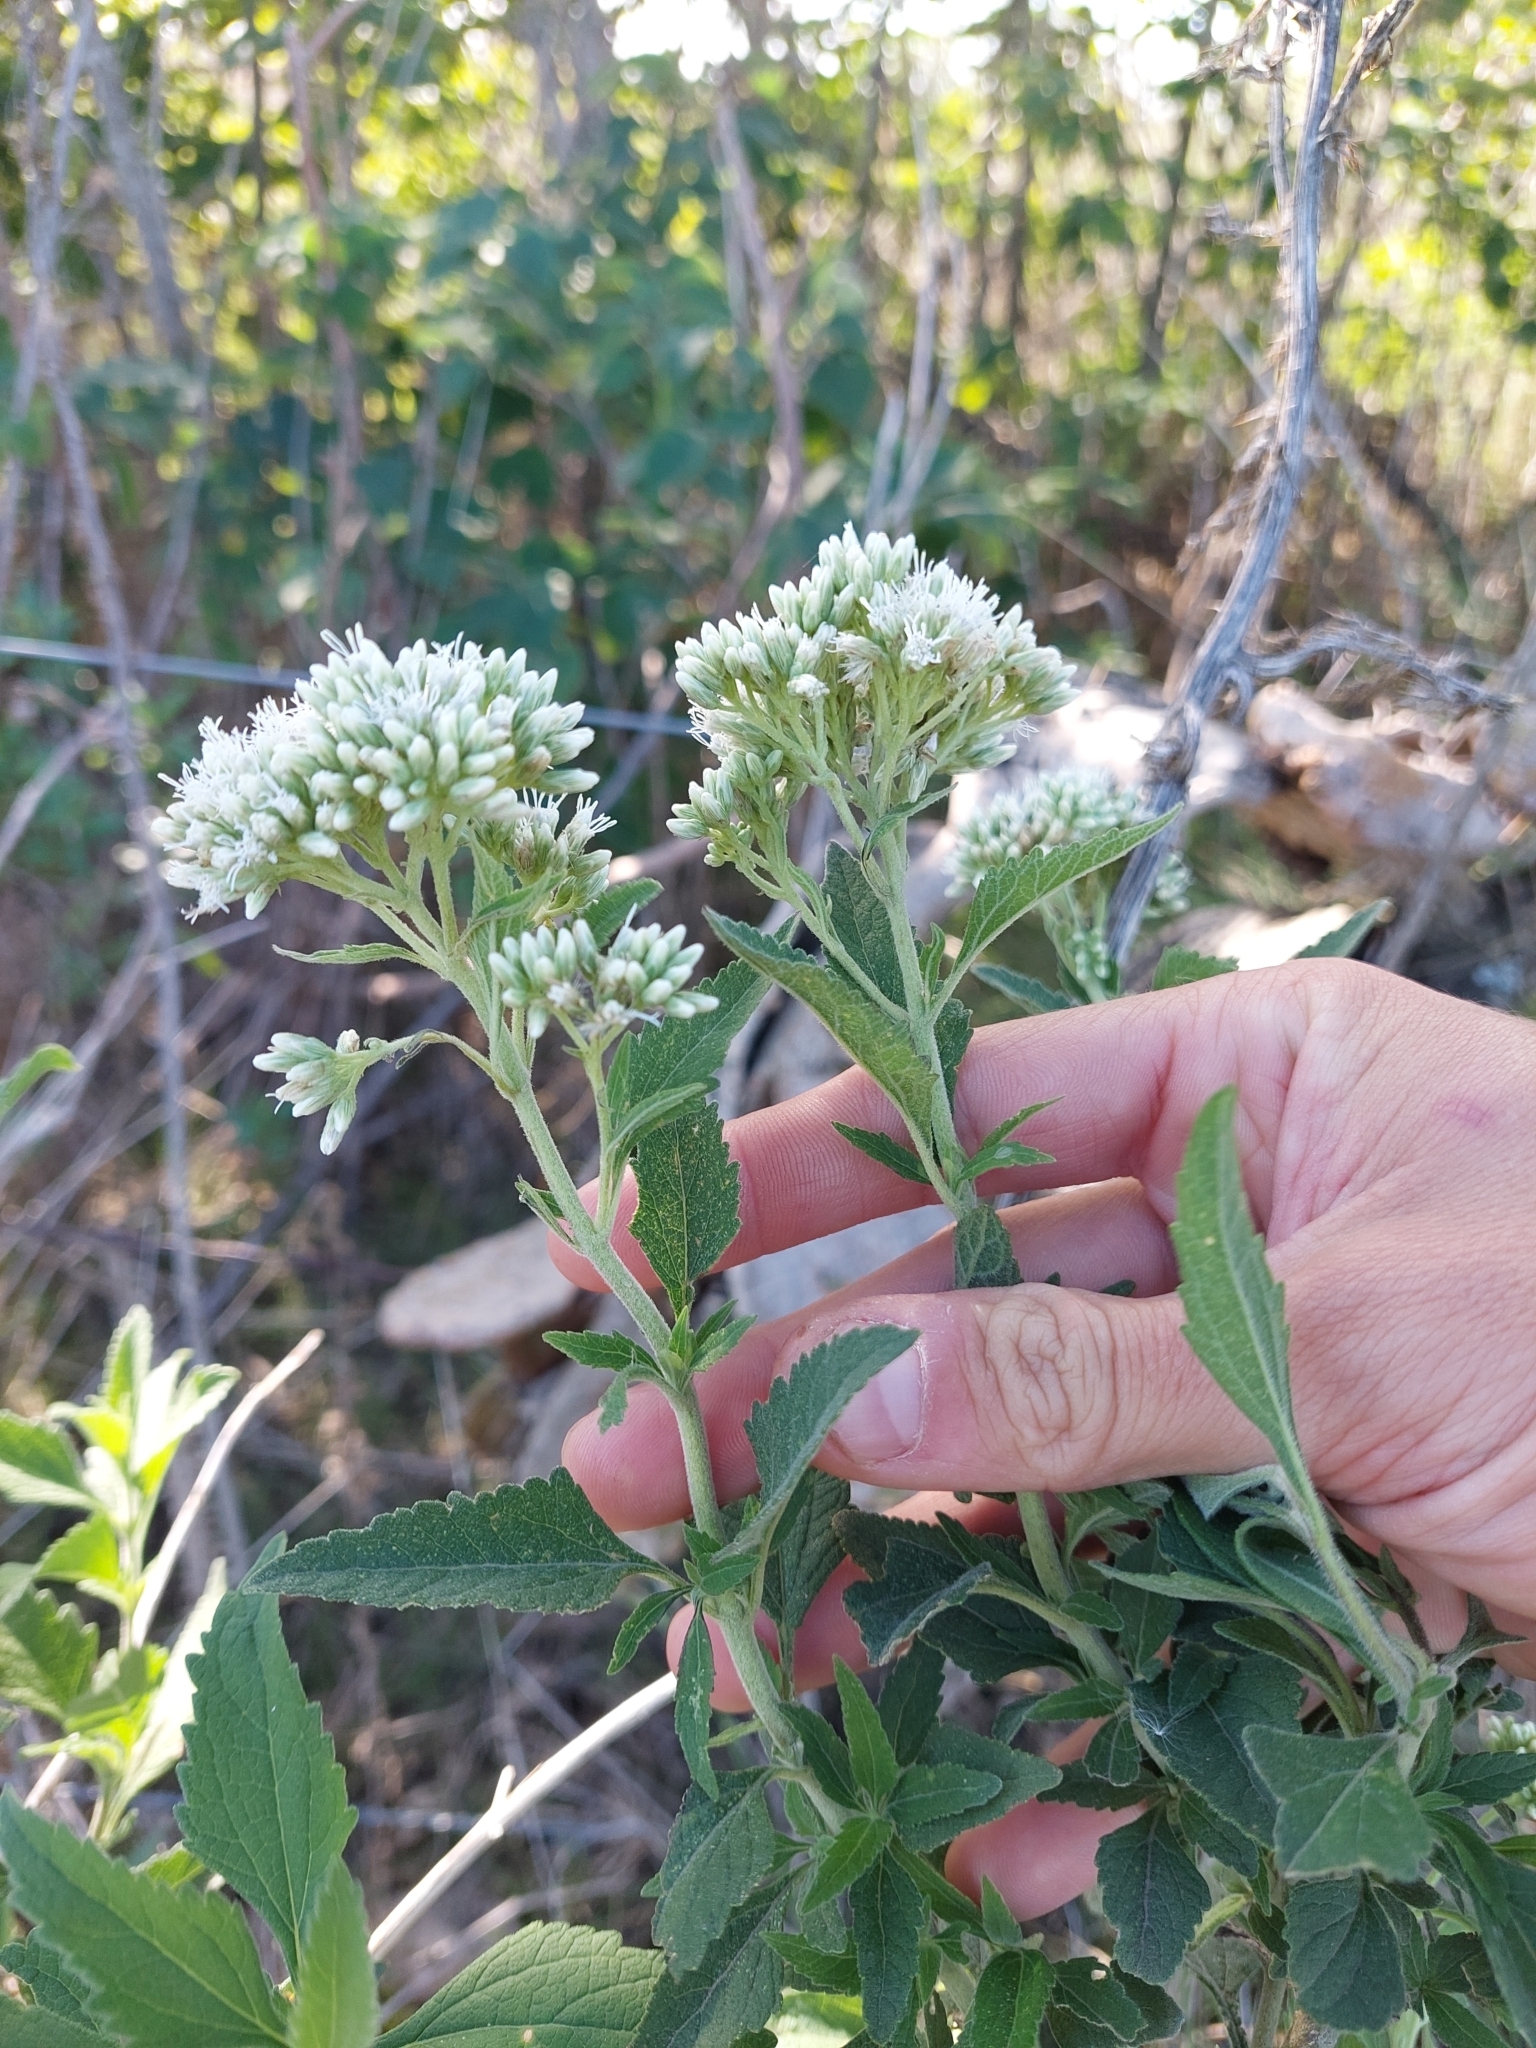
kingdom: Plantae
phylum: Tracheophyta
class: Magnoliopsida
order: Asterales
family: Asteraceae
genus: Austroeupatorium
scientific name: Austroeupatorium inulifolium
